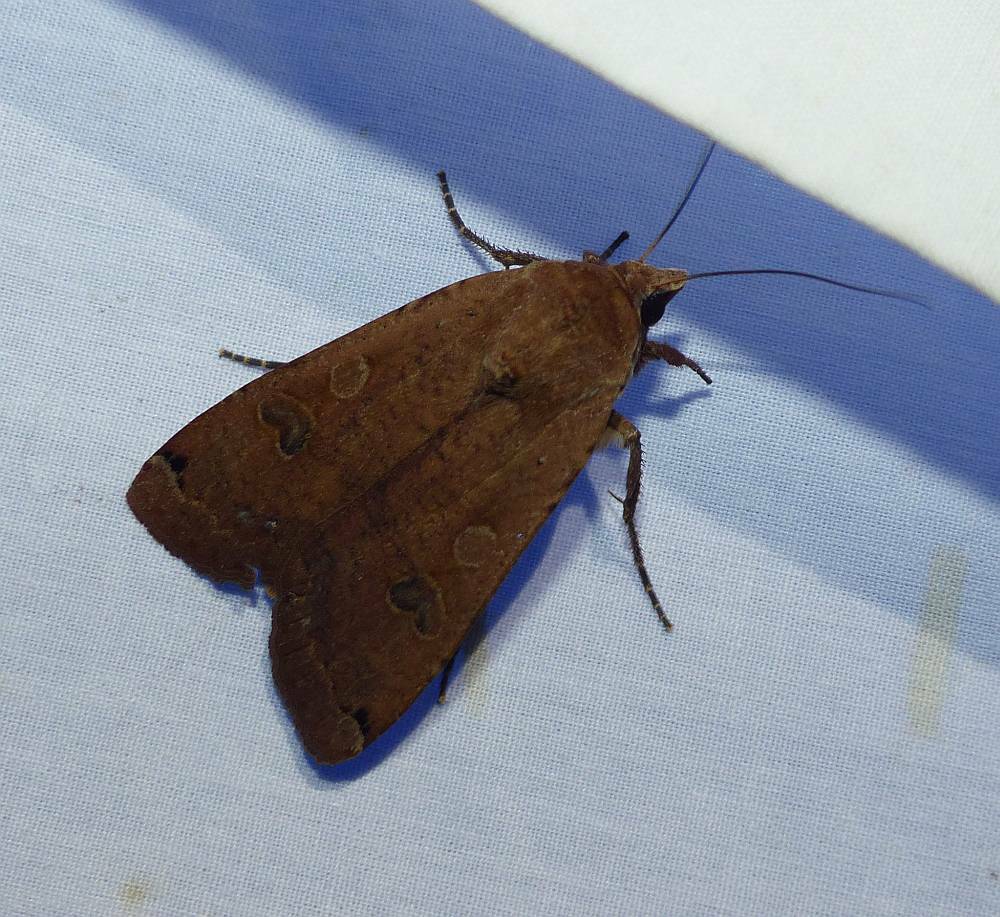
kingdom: Animalia
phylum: Arthropoda
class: Insecta
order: Lepidoptera
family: Noctuidae
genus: Noctua
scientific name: Noctua pronuba
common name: Large yellow underwing
